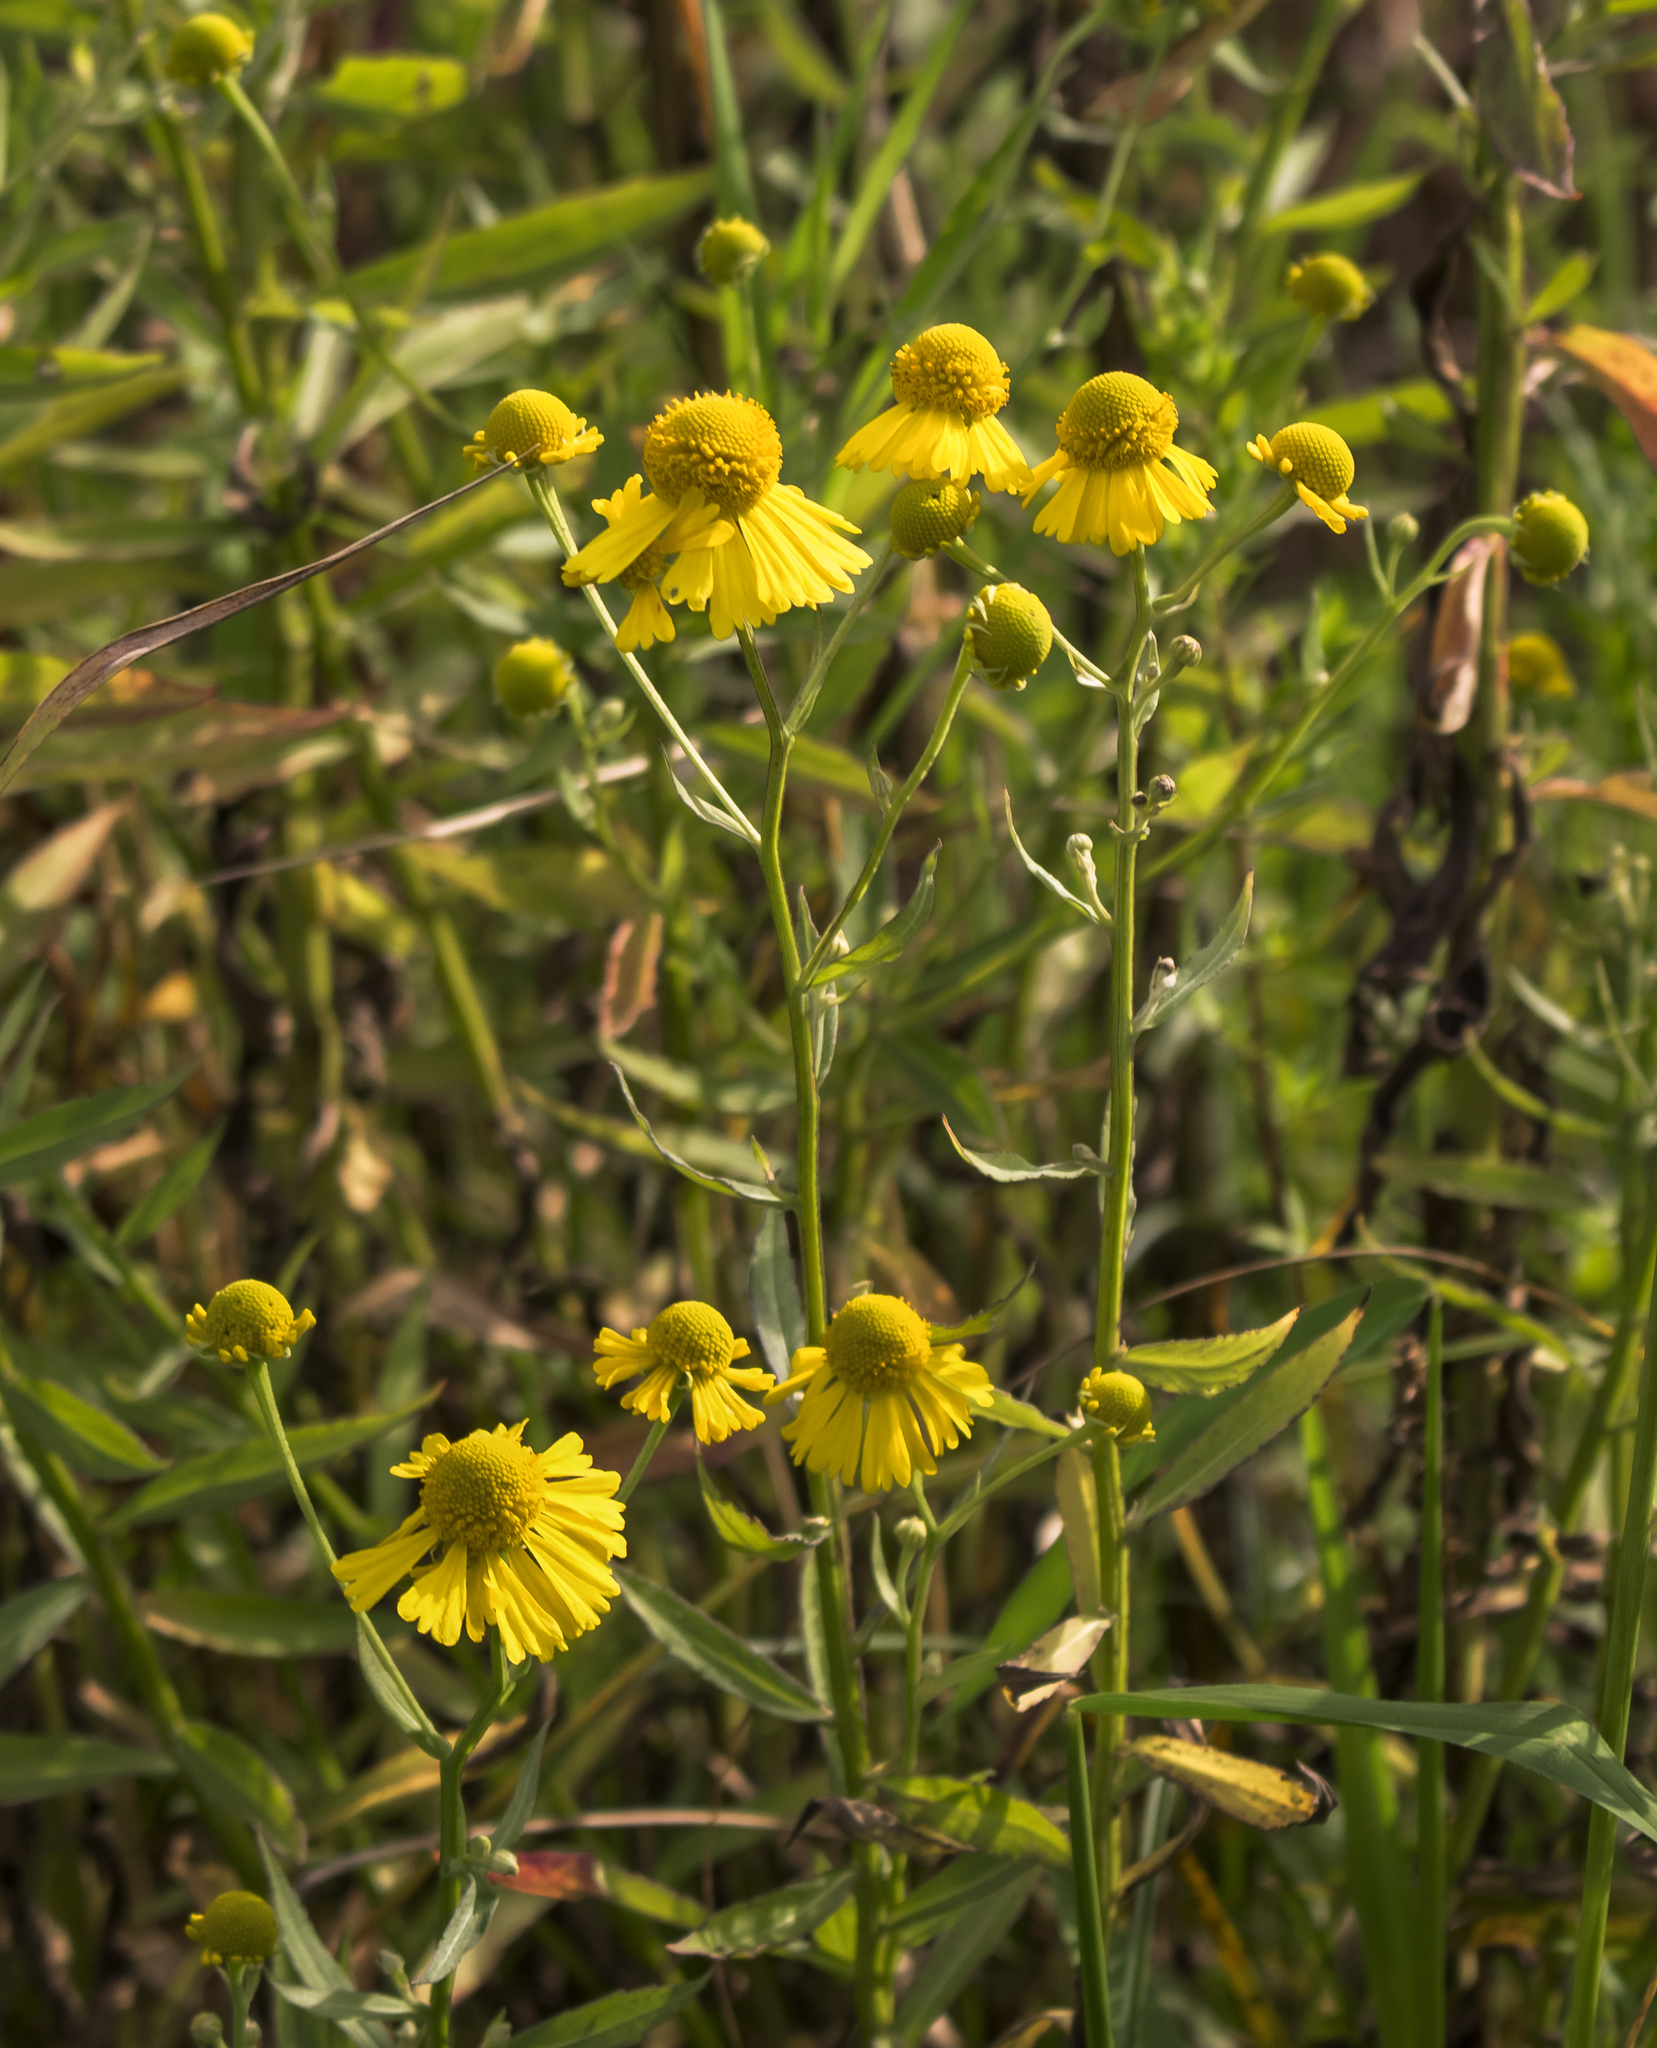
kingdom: Plantae
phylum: Tracheophyta
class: Magnoliopsida
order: Asterales
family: Asteraceae
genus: Helenium
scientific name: Helenium autumnale
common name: Sneezeweed
